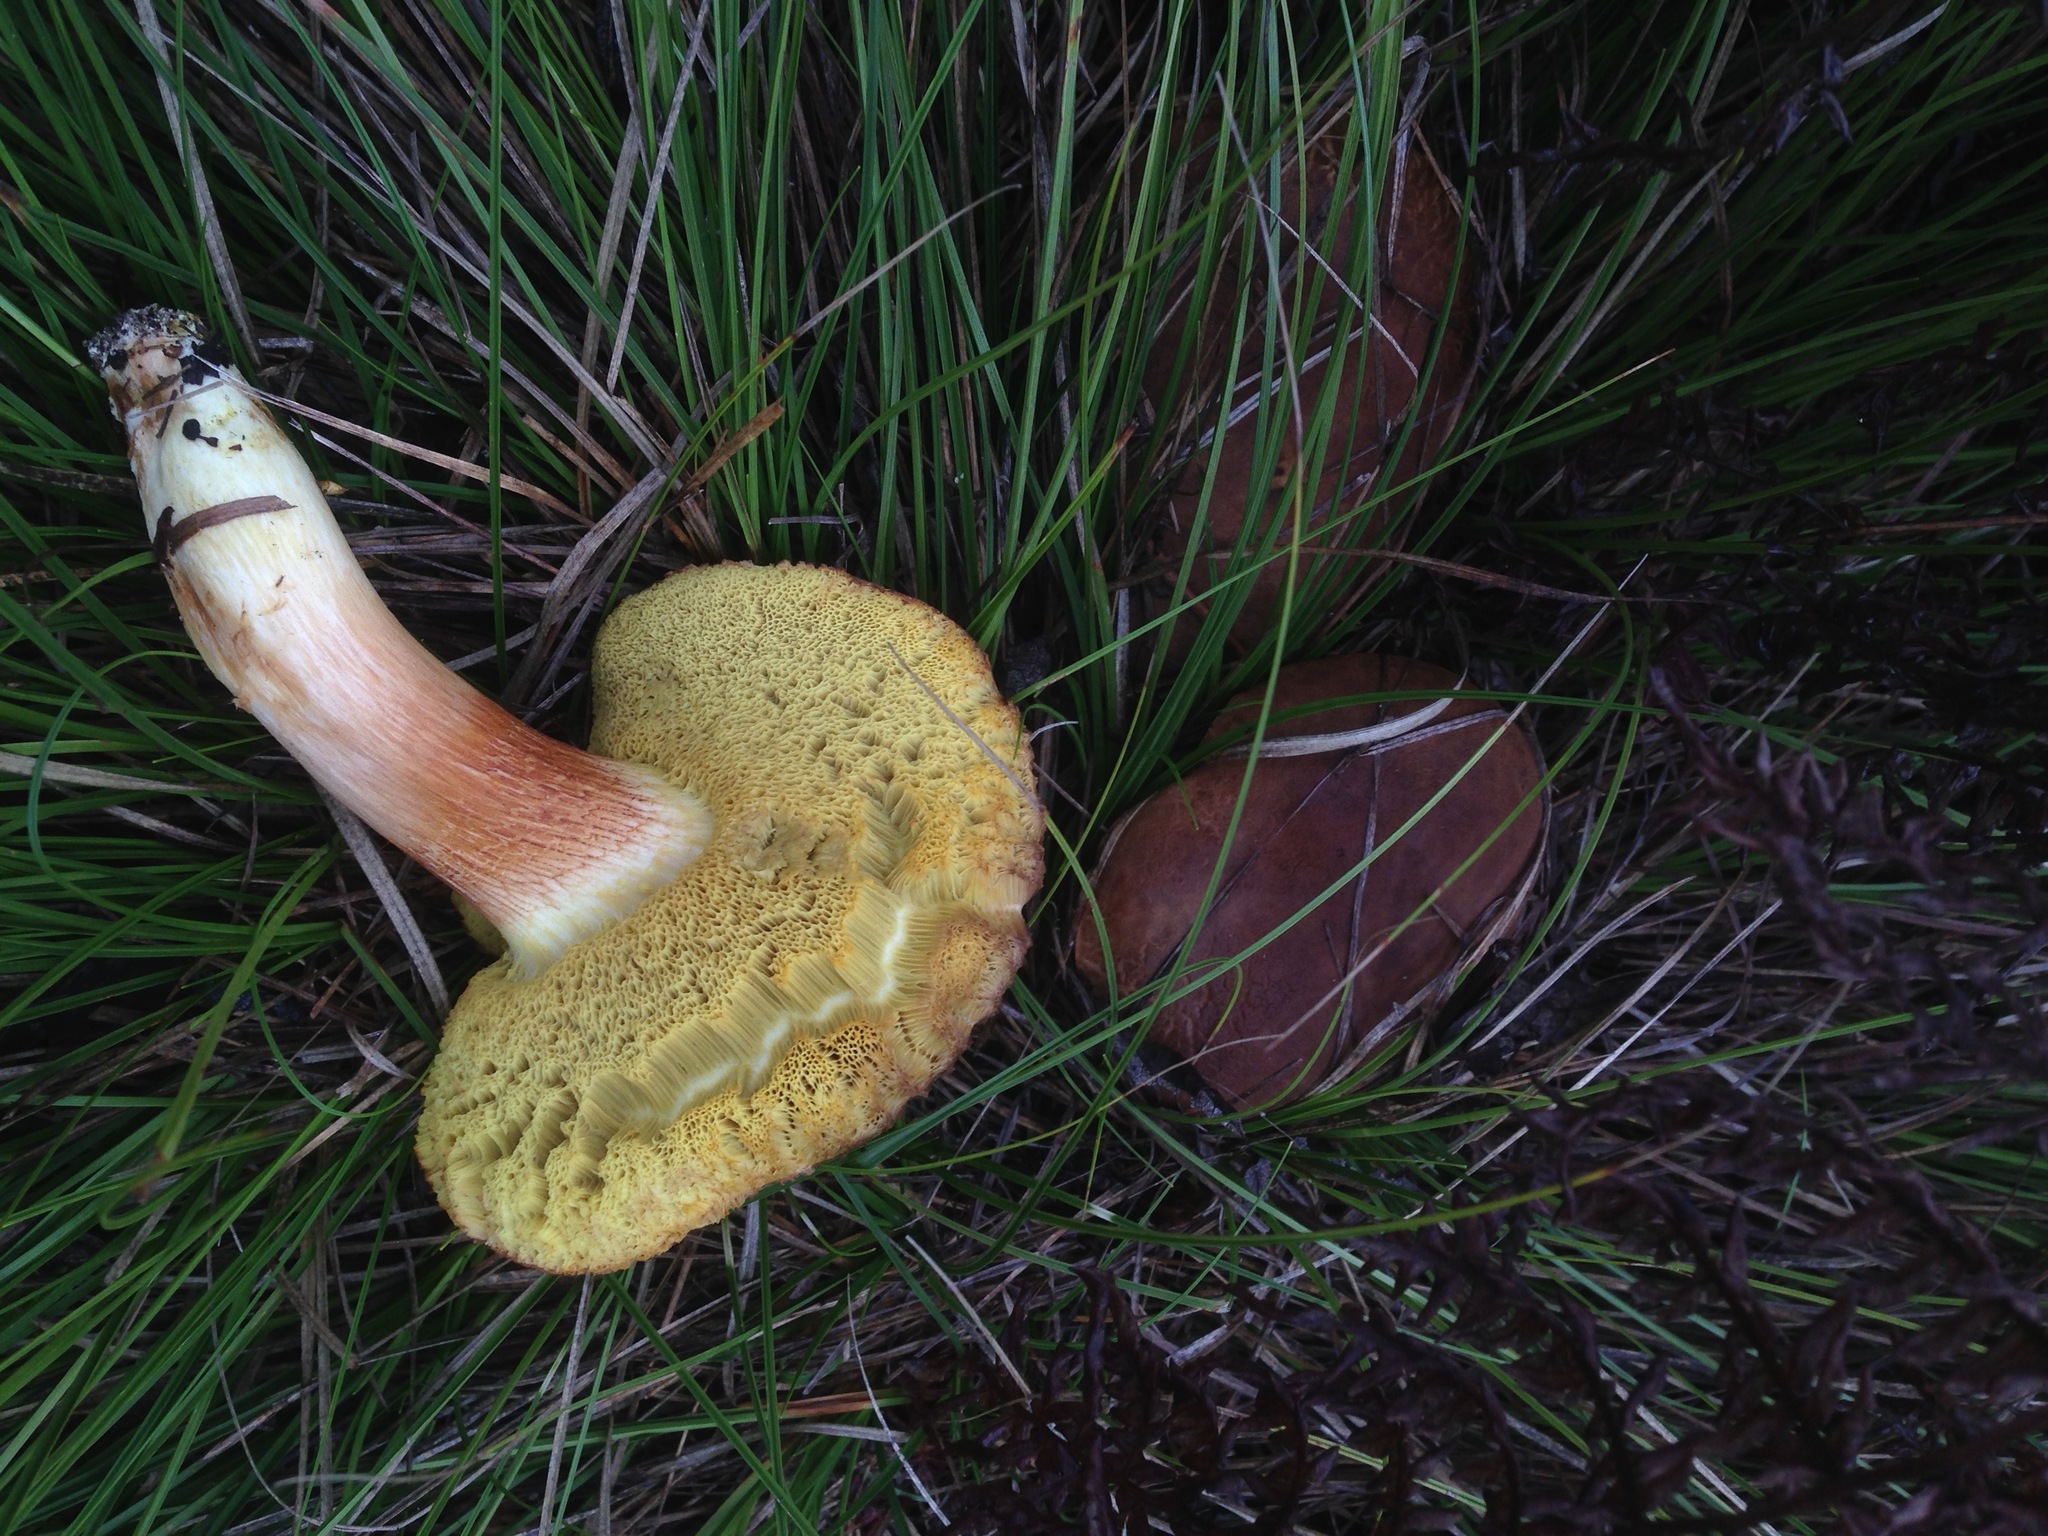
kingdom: Fungi
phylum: Basidiomycota
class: Agaricomycetes
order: Boletales
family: Boletaceae
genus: Xerocomus
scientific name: Xerocomus subtomentosus
